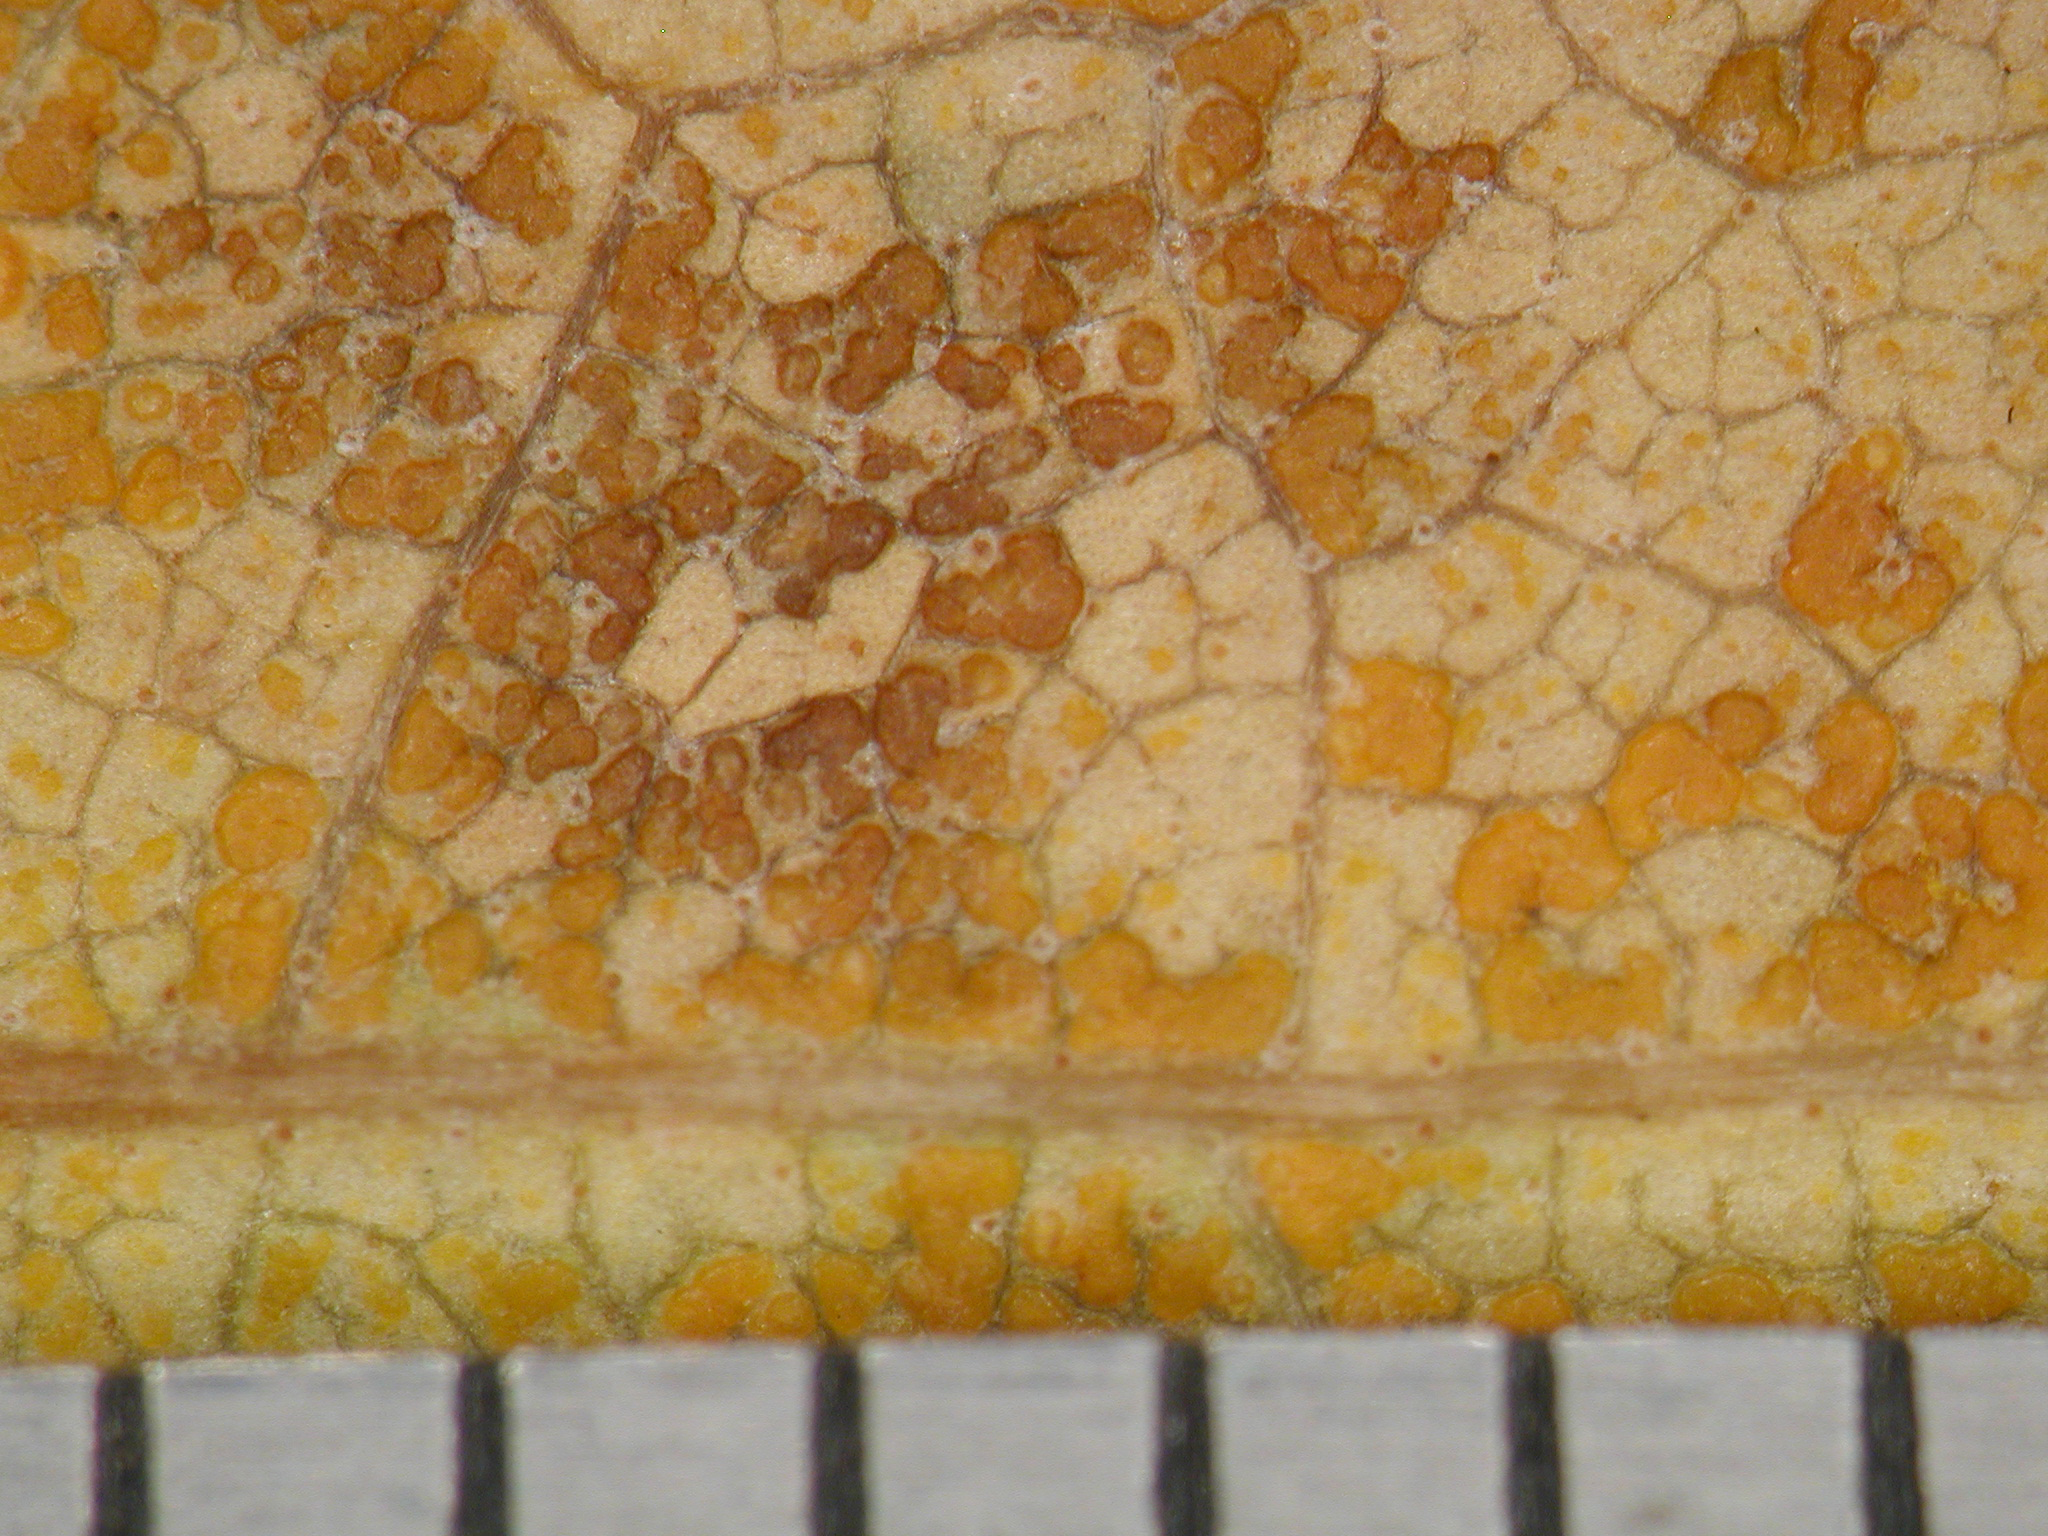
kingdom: Fungi
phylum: Basidiomycota
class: Pucciniomycetes
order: Pucciniales
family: Pucciniastraceae
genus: Melampsoridium
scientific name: Melampsoridium betulinum
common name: Birch rust
